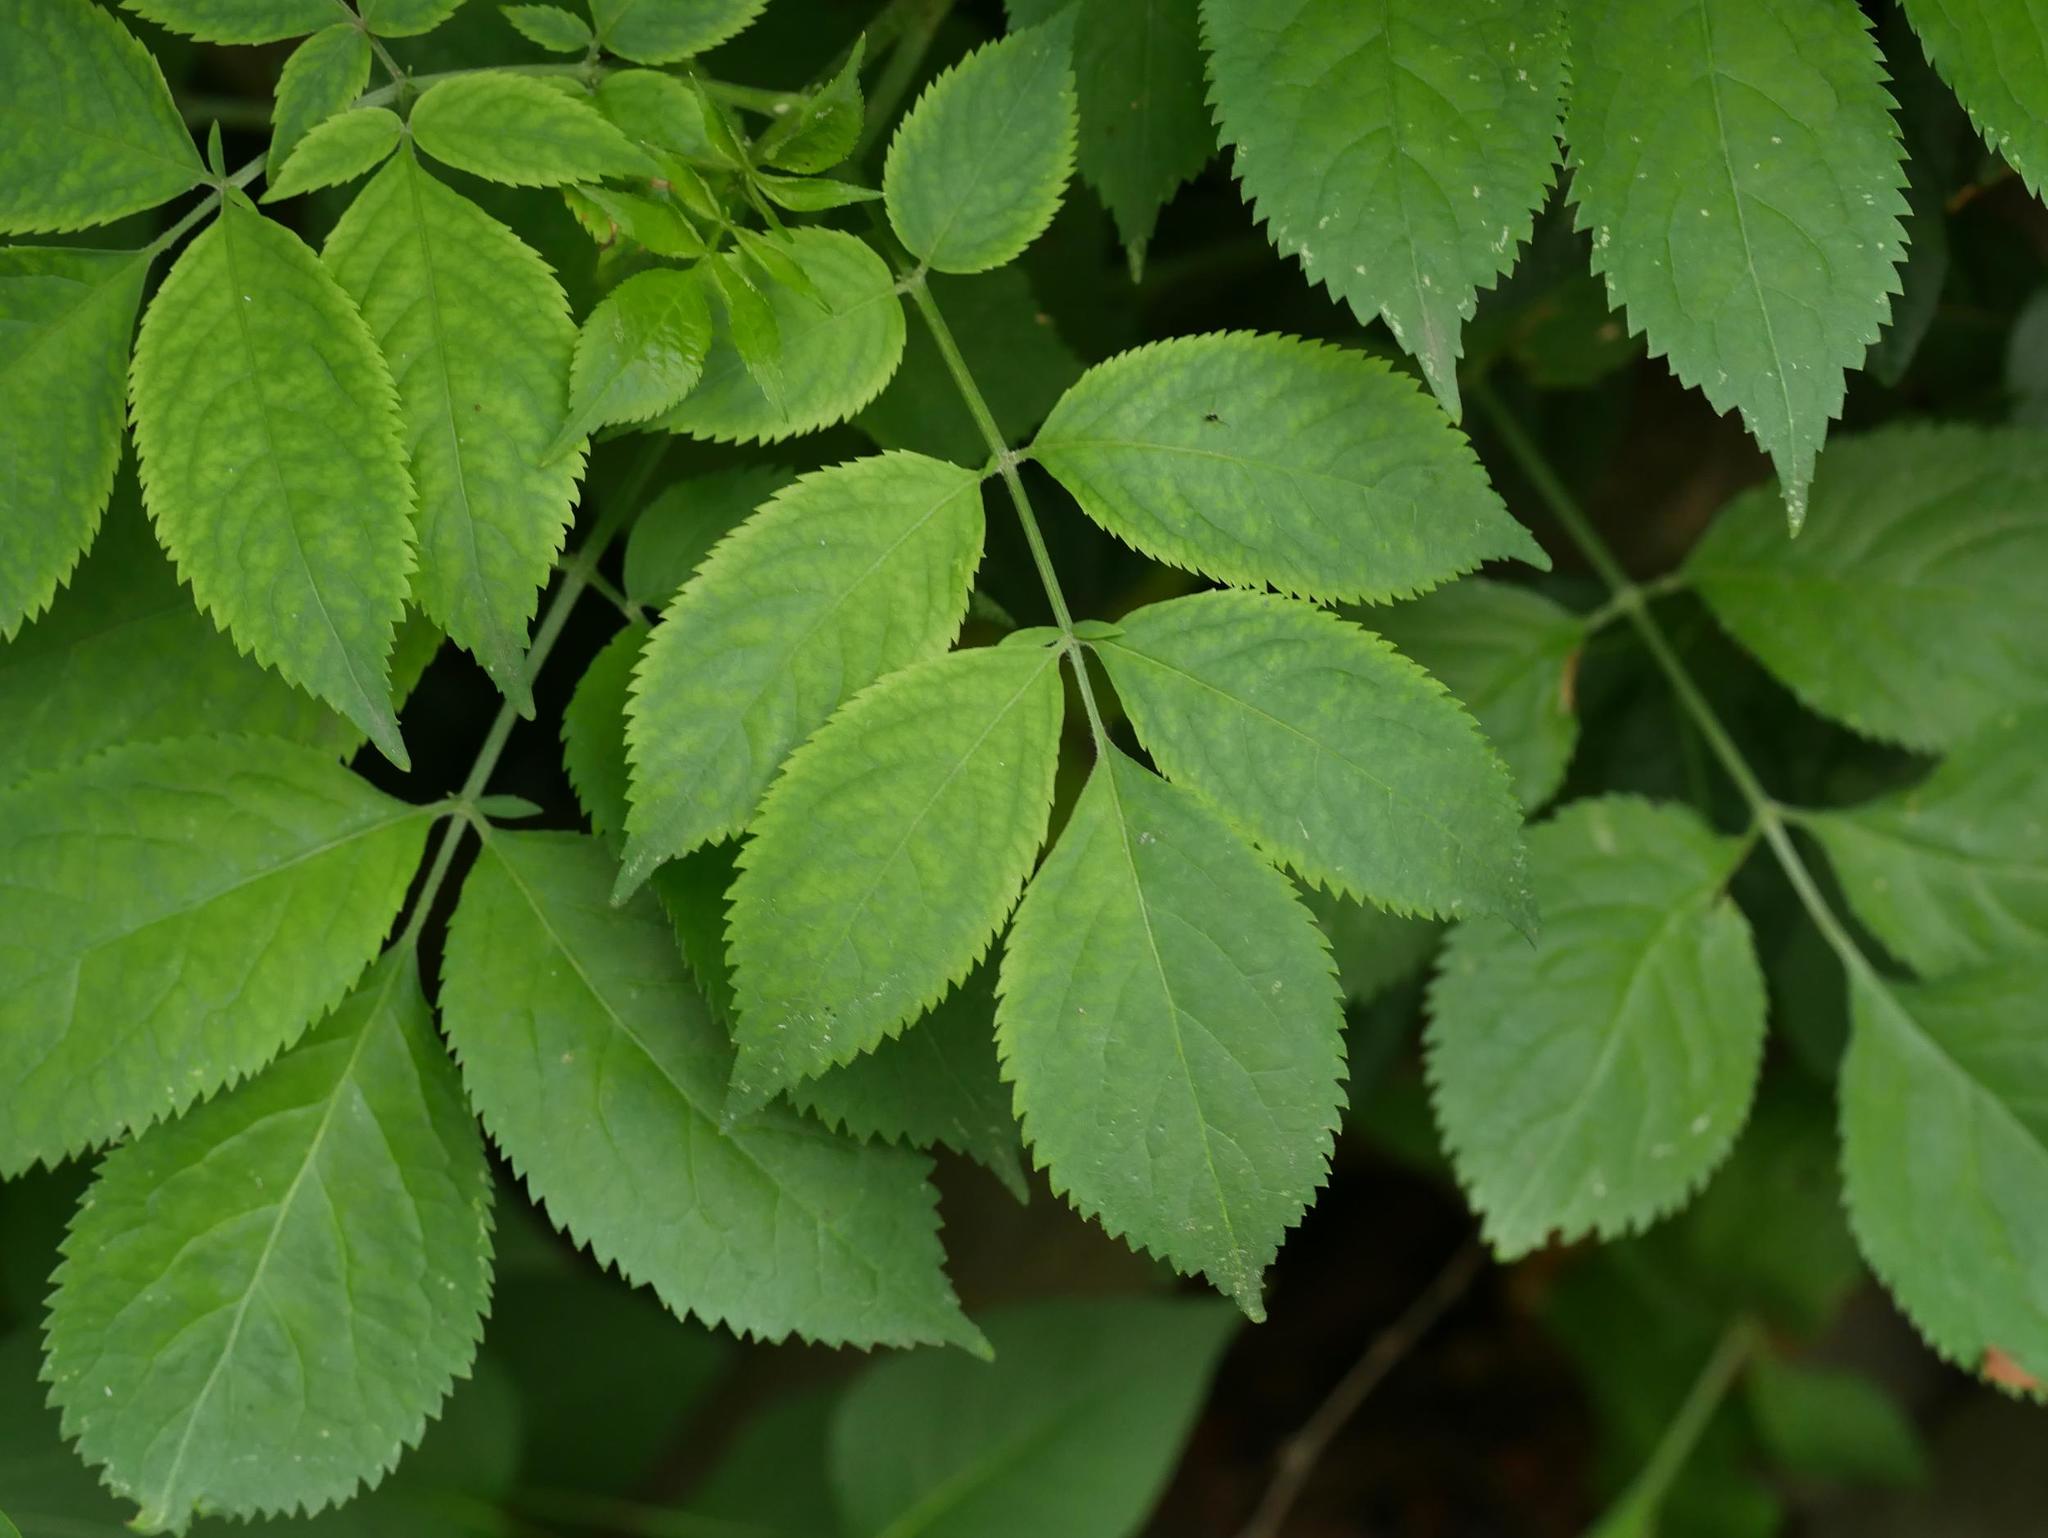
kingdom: Plantae
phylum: Tracheophyta
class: Magnoliopsida
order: Dipsacales
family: Viburnaceae
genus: Sambucus
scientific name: Sambucus nigra
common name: Elder
